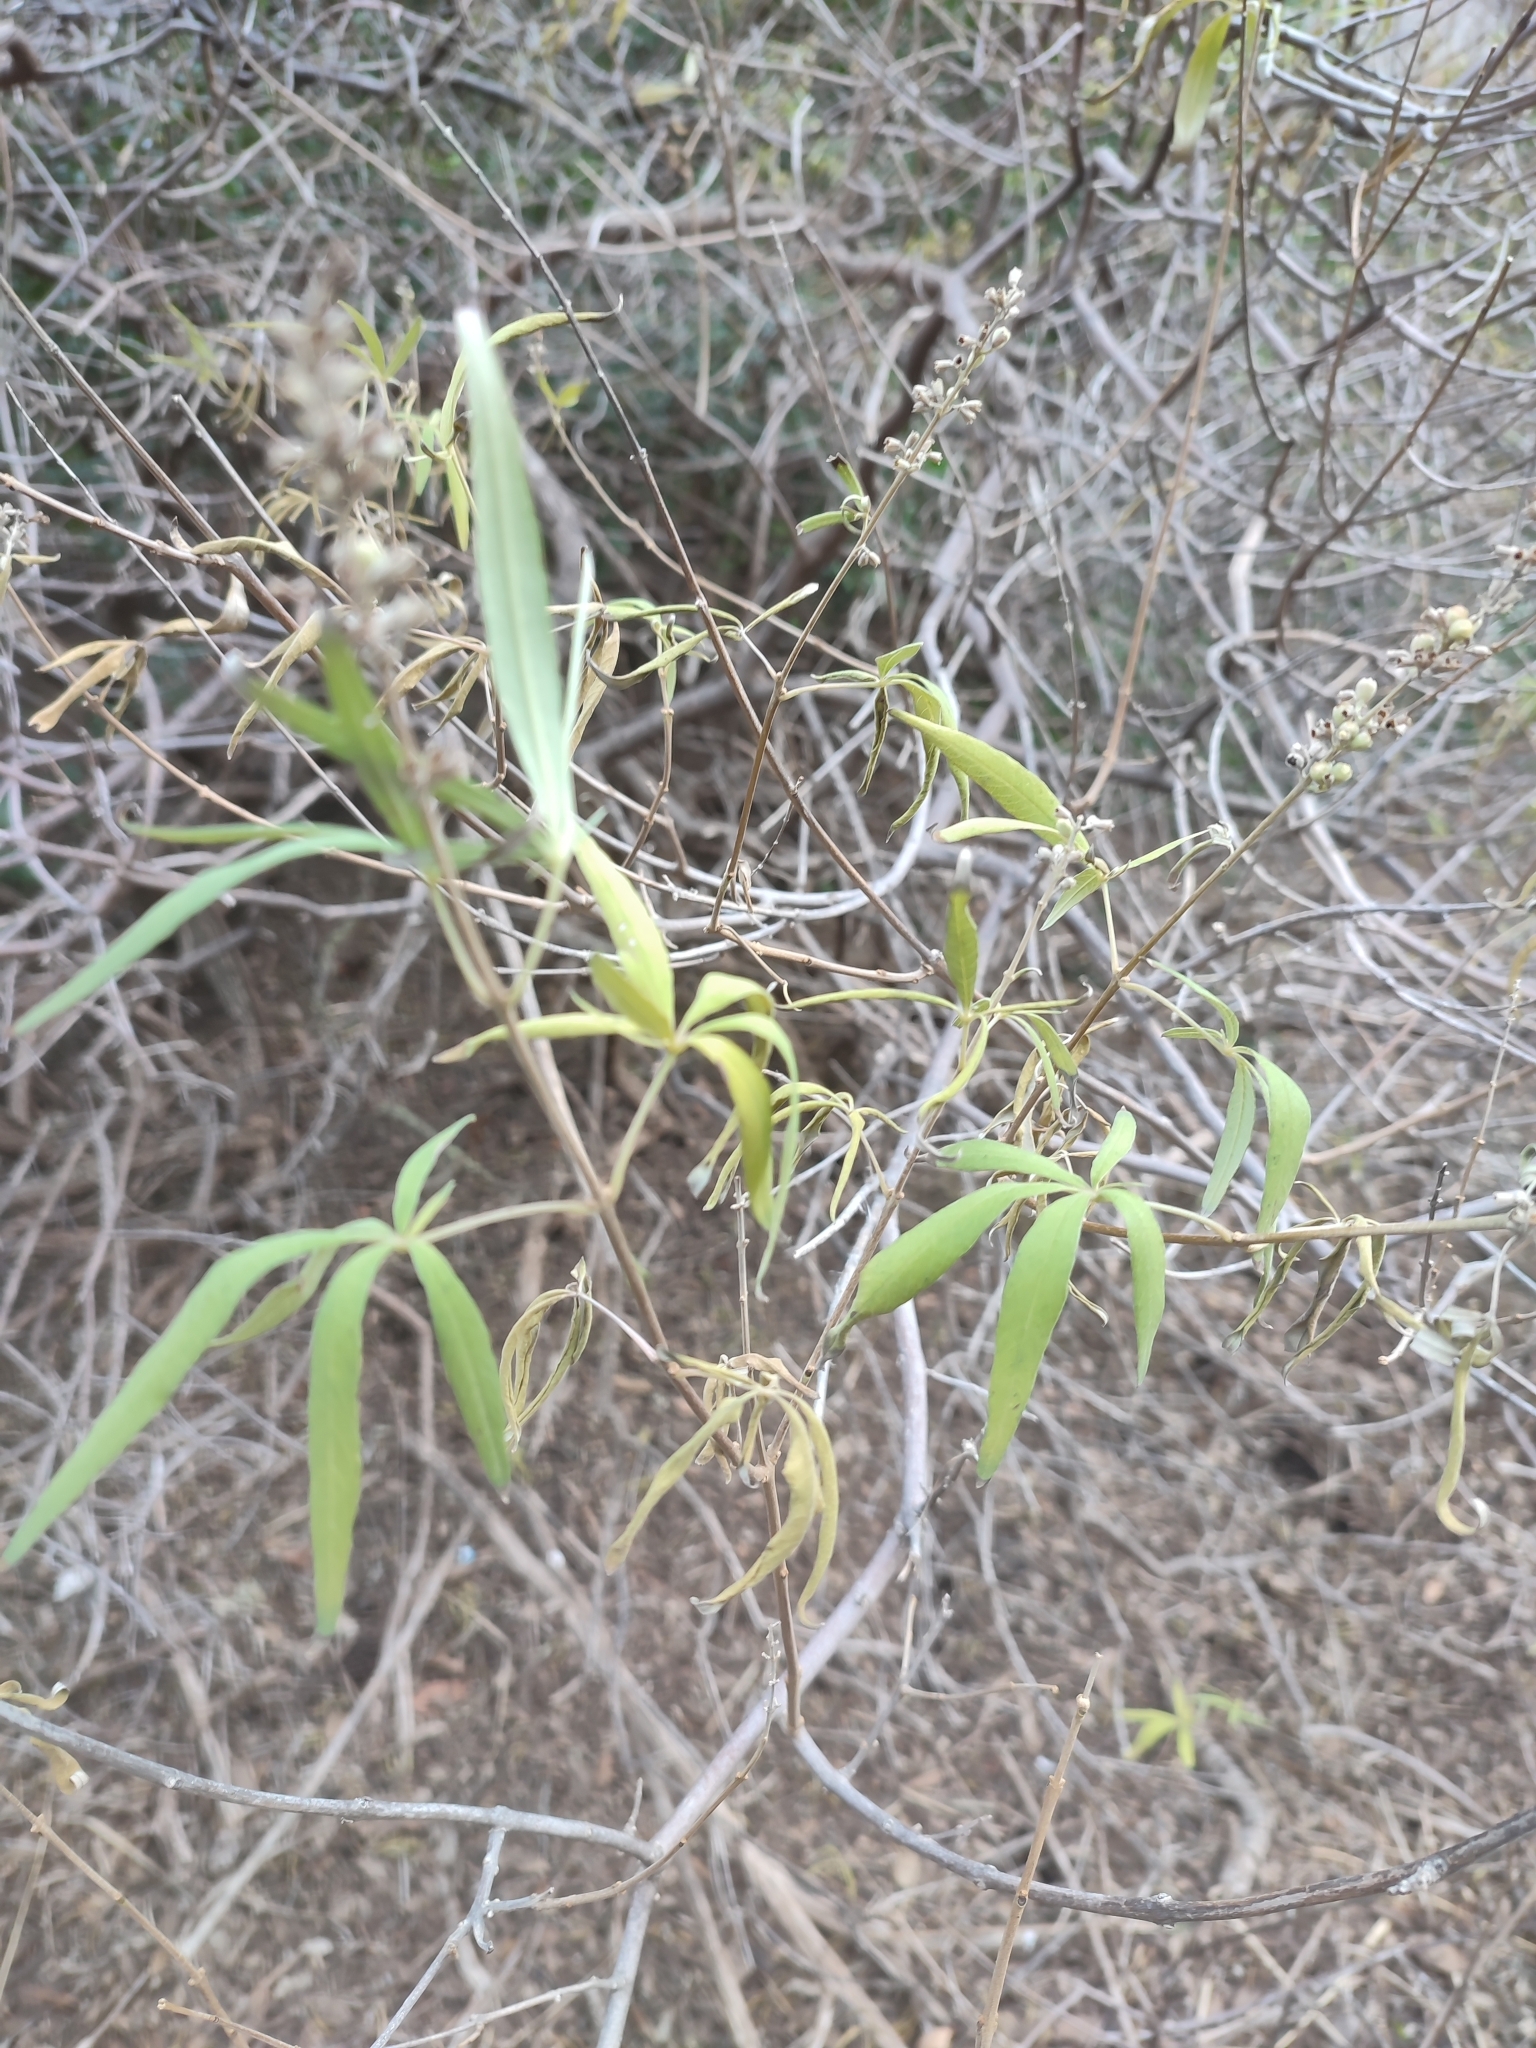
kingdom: Plantae
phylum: Tracheophyta
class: Magnoliopsida
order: Lamiales
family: Lamiaceae
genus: Vitex
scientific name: Vitex agnus-castus
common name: Chasteberry
